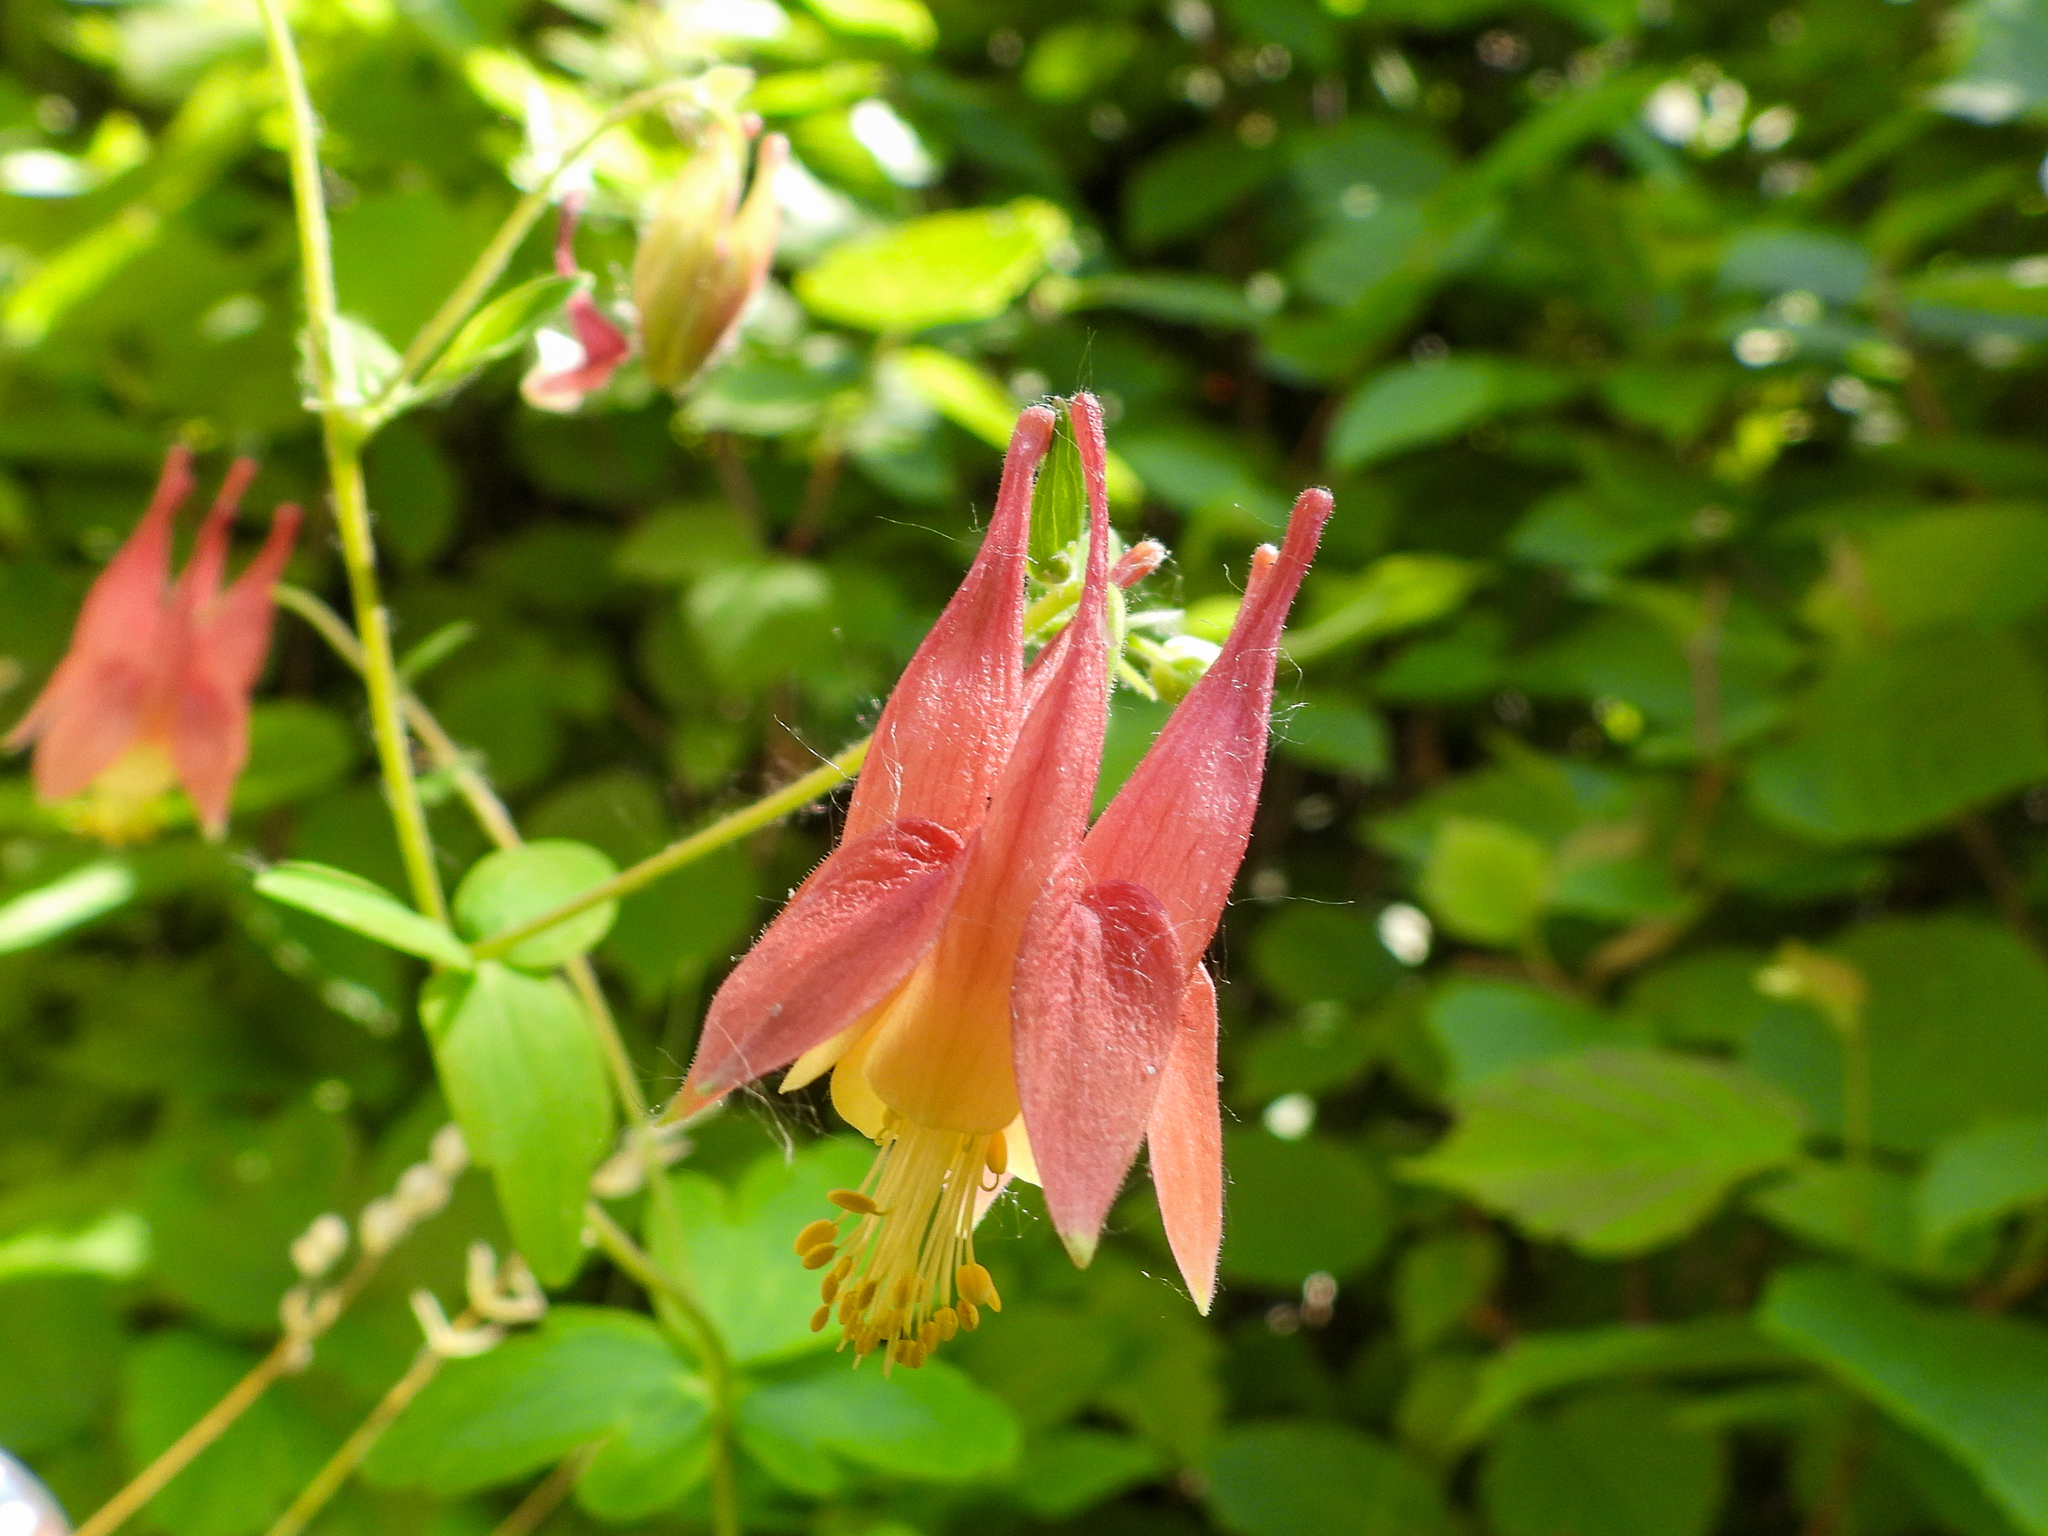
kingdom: Plantae
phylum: Tracheophyta
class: Magnoliopsida
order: Ranunculales
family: Ranunculaceae
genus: Aquilegia
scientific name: Aquilegia canadensis
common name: American columbine
